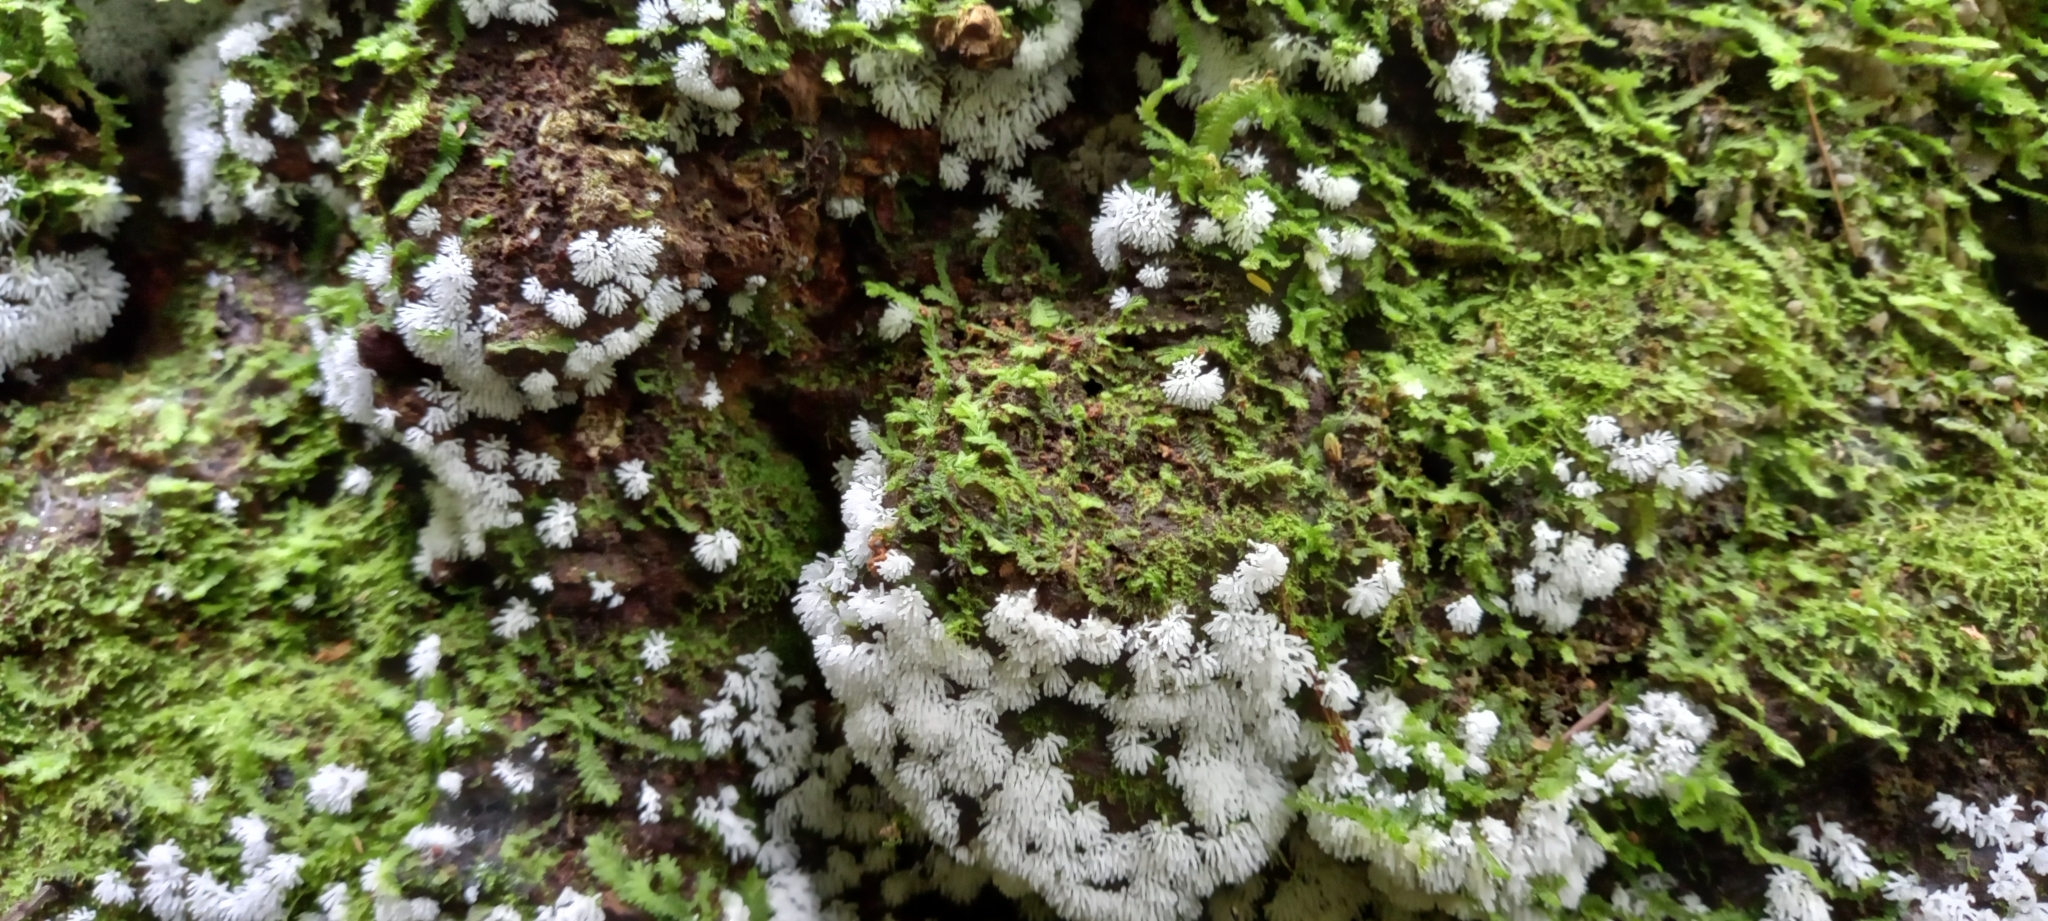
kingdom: Protozoa
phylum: Mycetozoa
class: Protosteliomycetes
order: Ceratiomyxales
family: Ceratiomyxaceae
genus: Ceratiomyxa
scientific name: Ceratiomyxa fruticulosa
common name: Honeycomb coral slime mold
